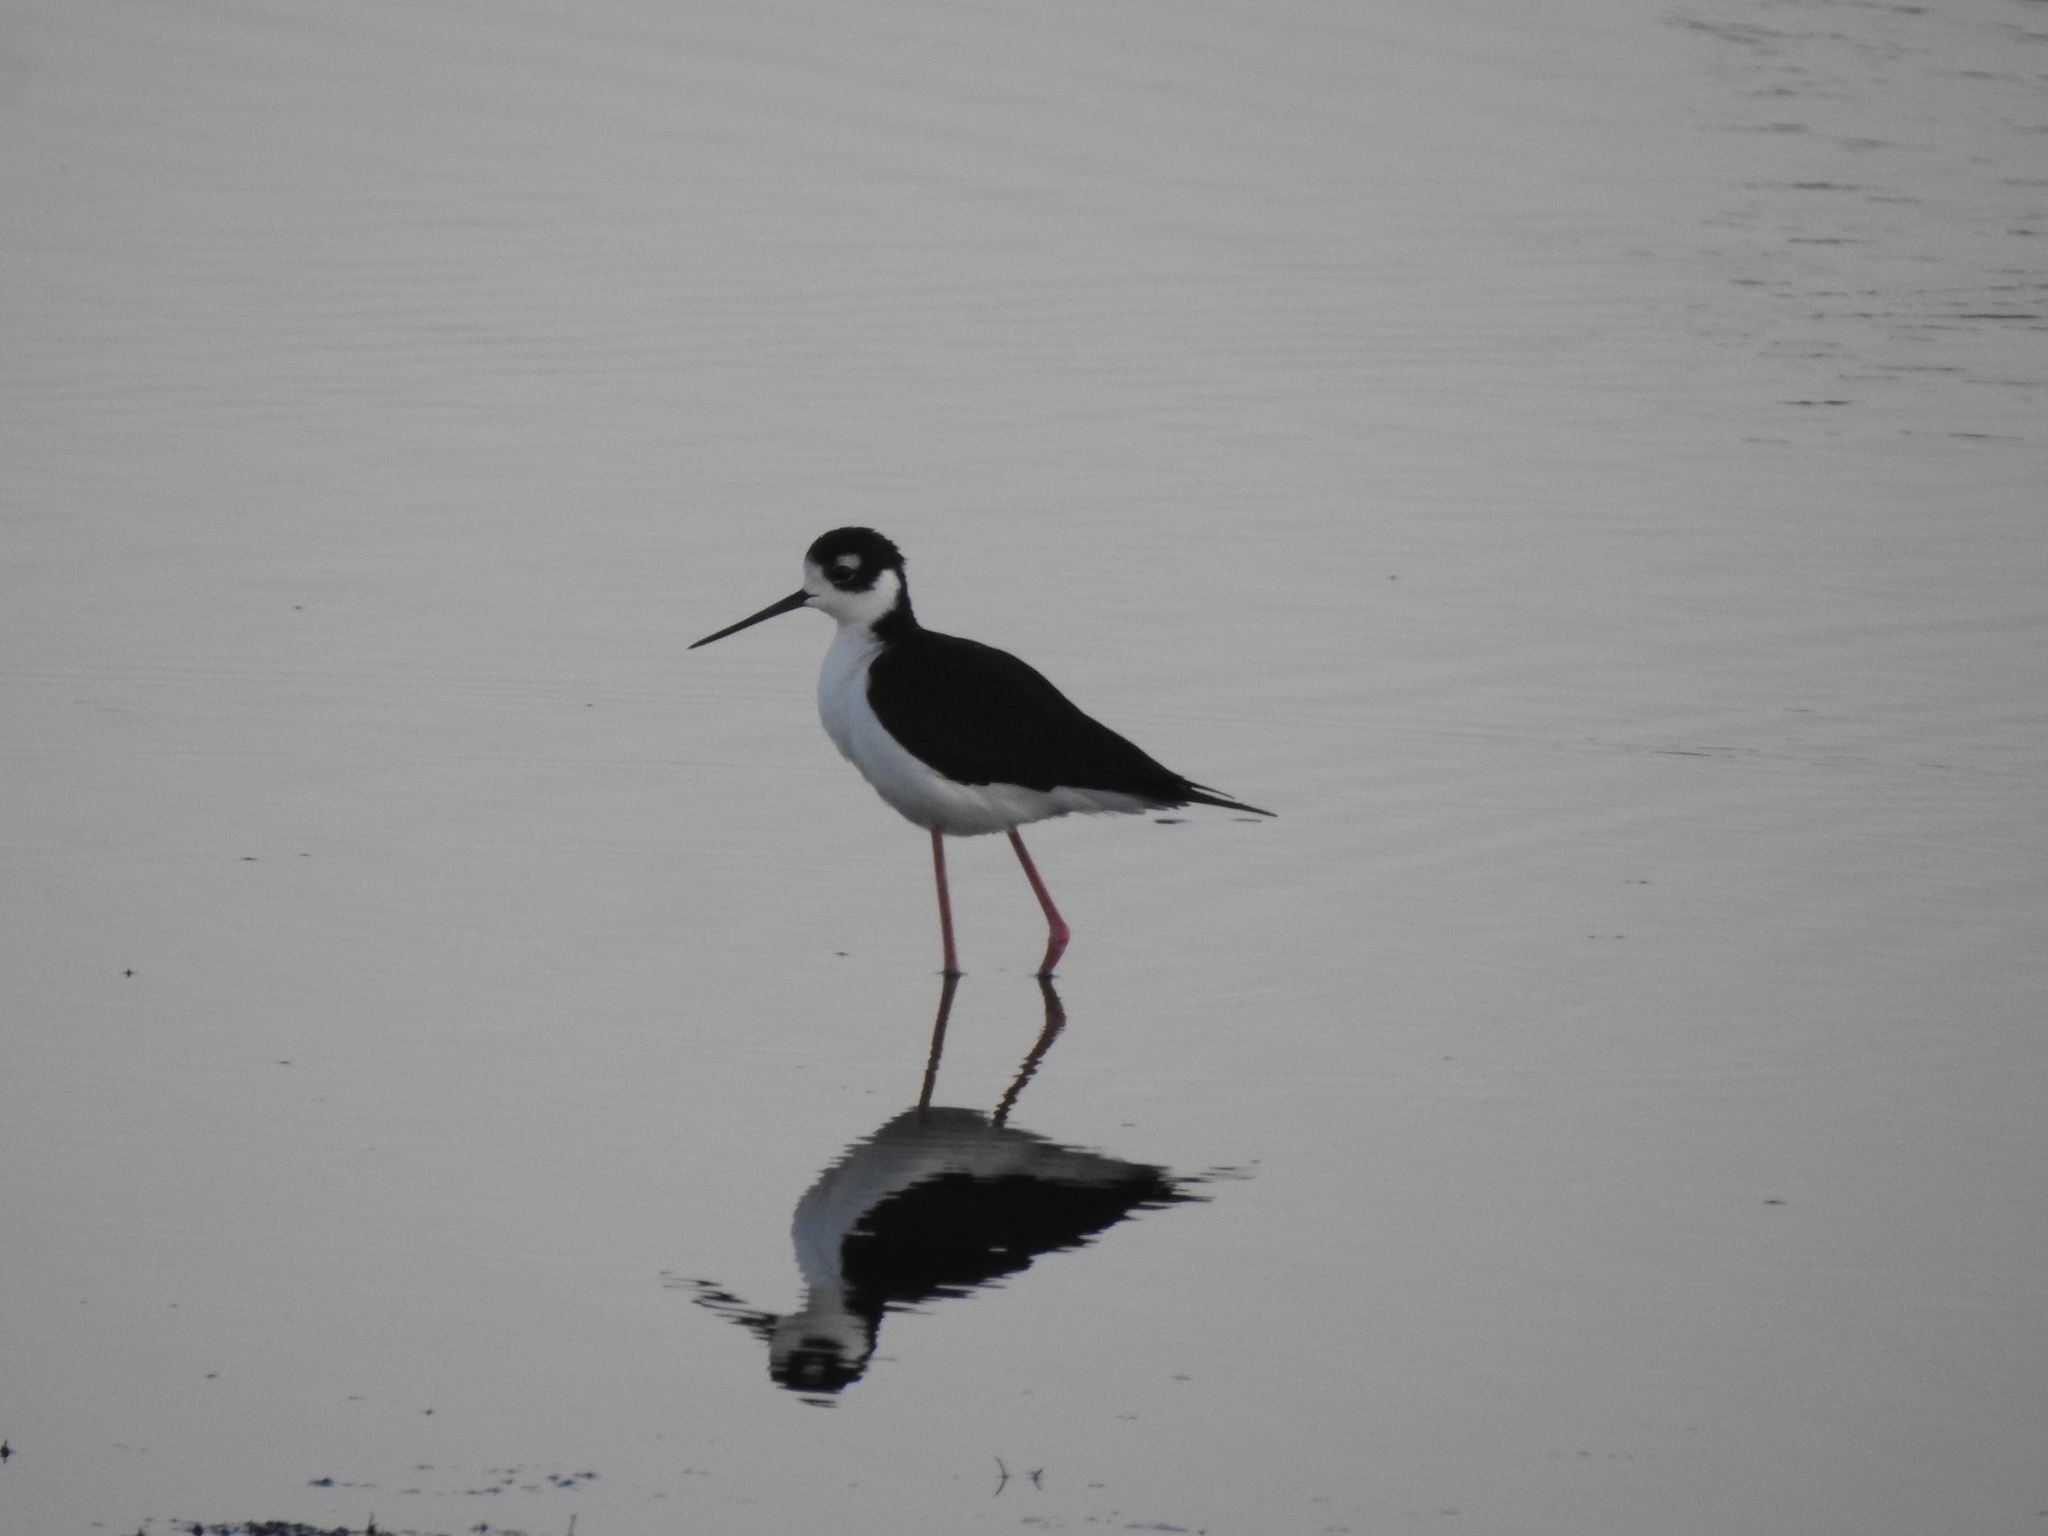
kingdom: Animalia
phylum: Chordata
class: Aves
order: Charadriiformes
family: Recurvirostridae
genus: Himantopus
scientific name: Himantopus mexicanus
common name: Black-necked stilt
